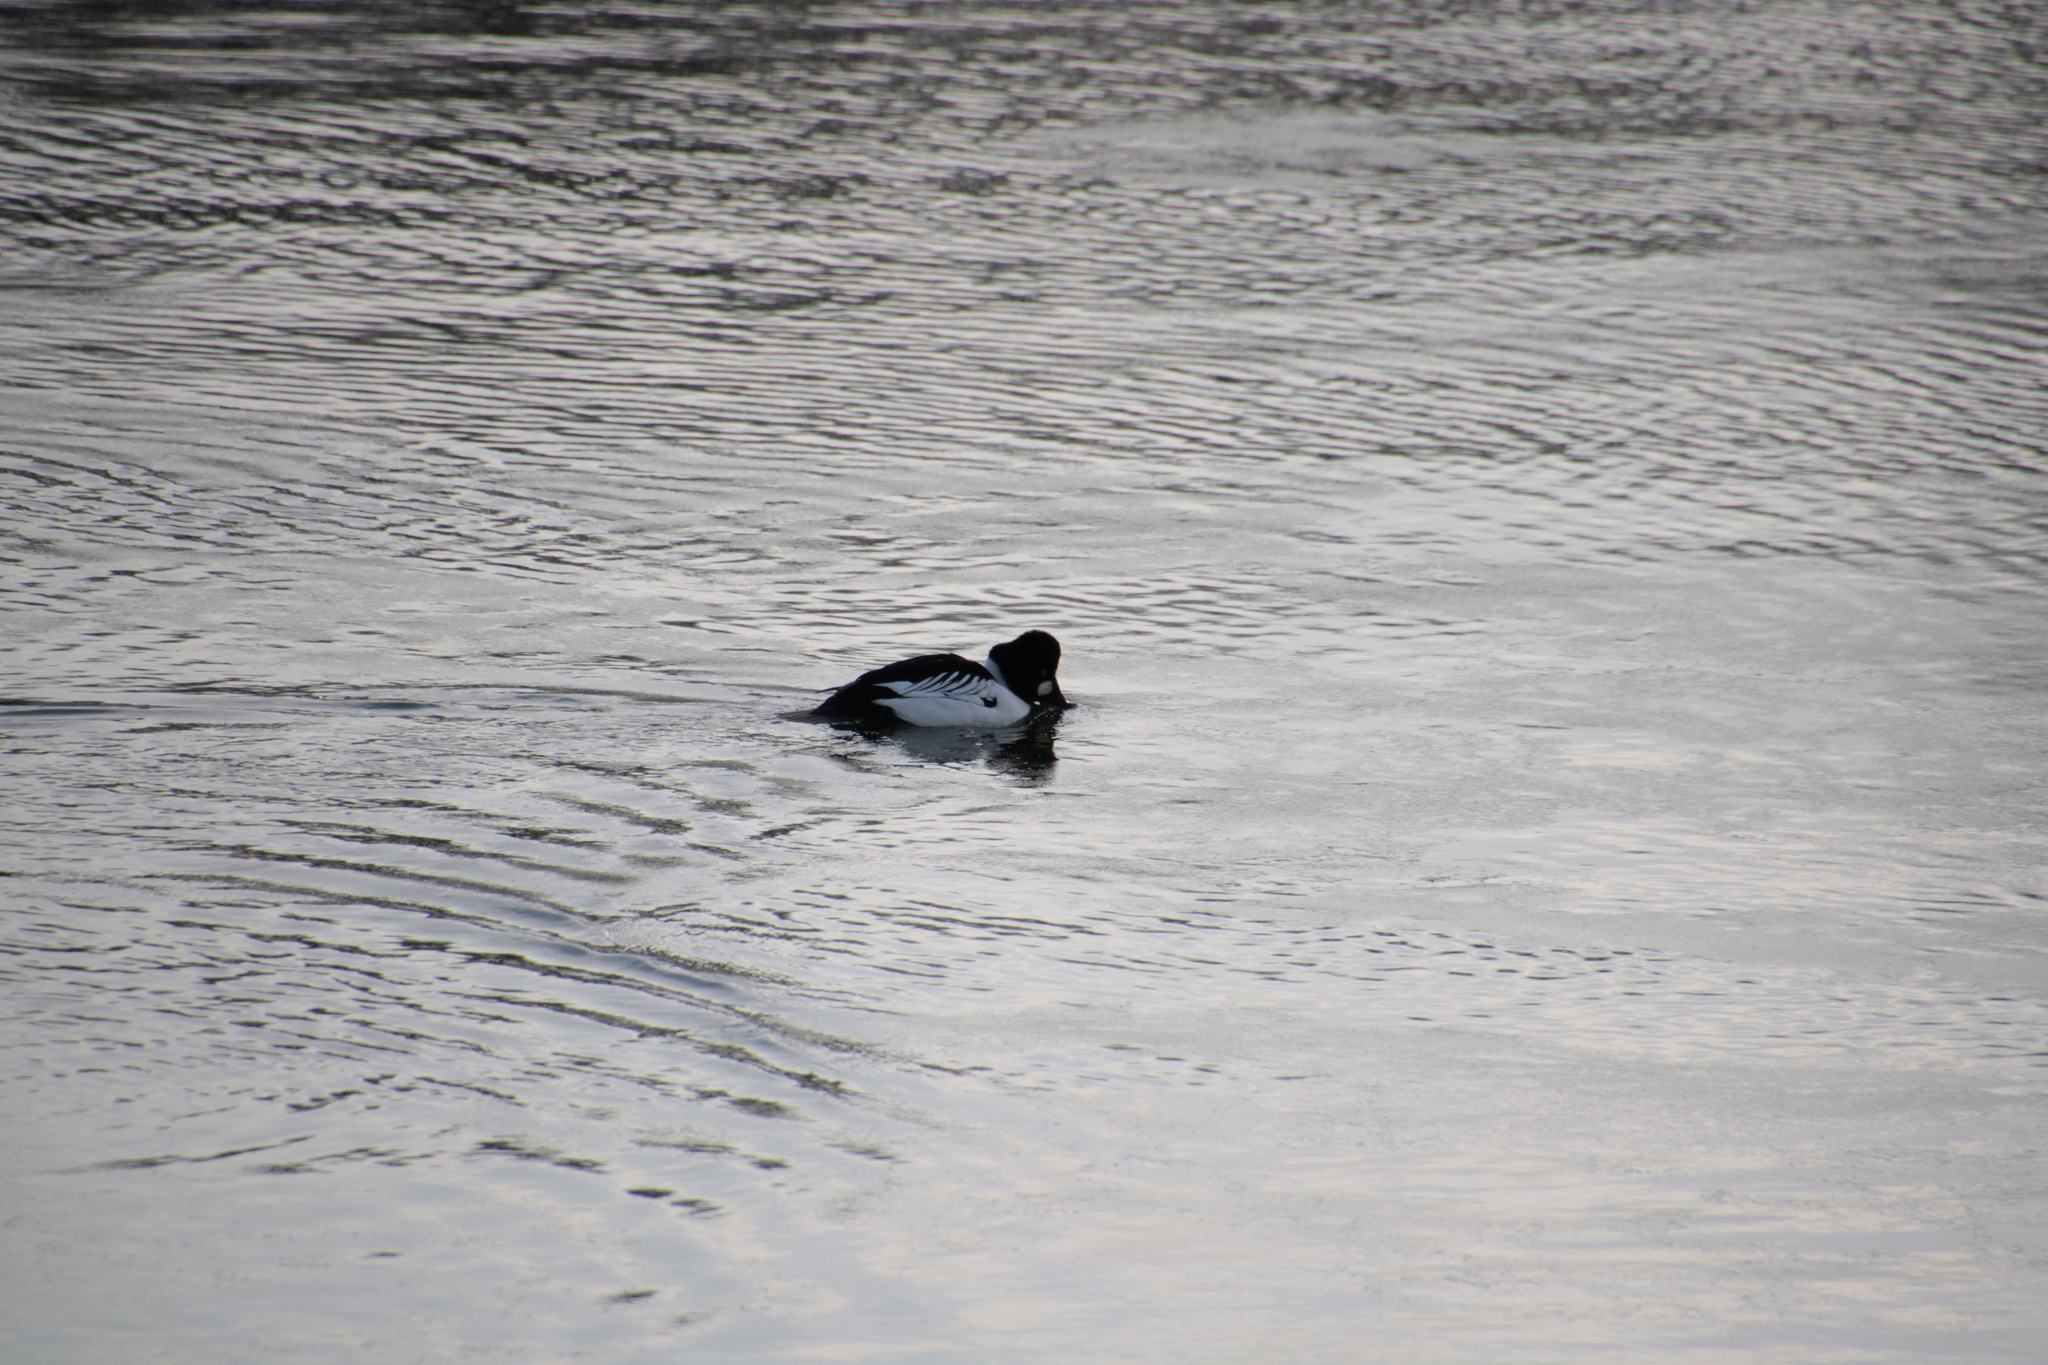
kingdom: Animalia
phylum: Chordata
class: Aves
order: Anseriformes
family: Anatidae
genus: Bucephala
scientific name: Bucephala clangula
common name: Common goldeneye
